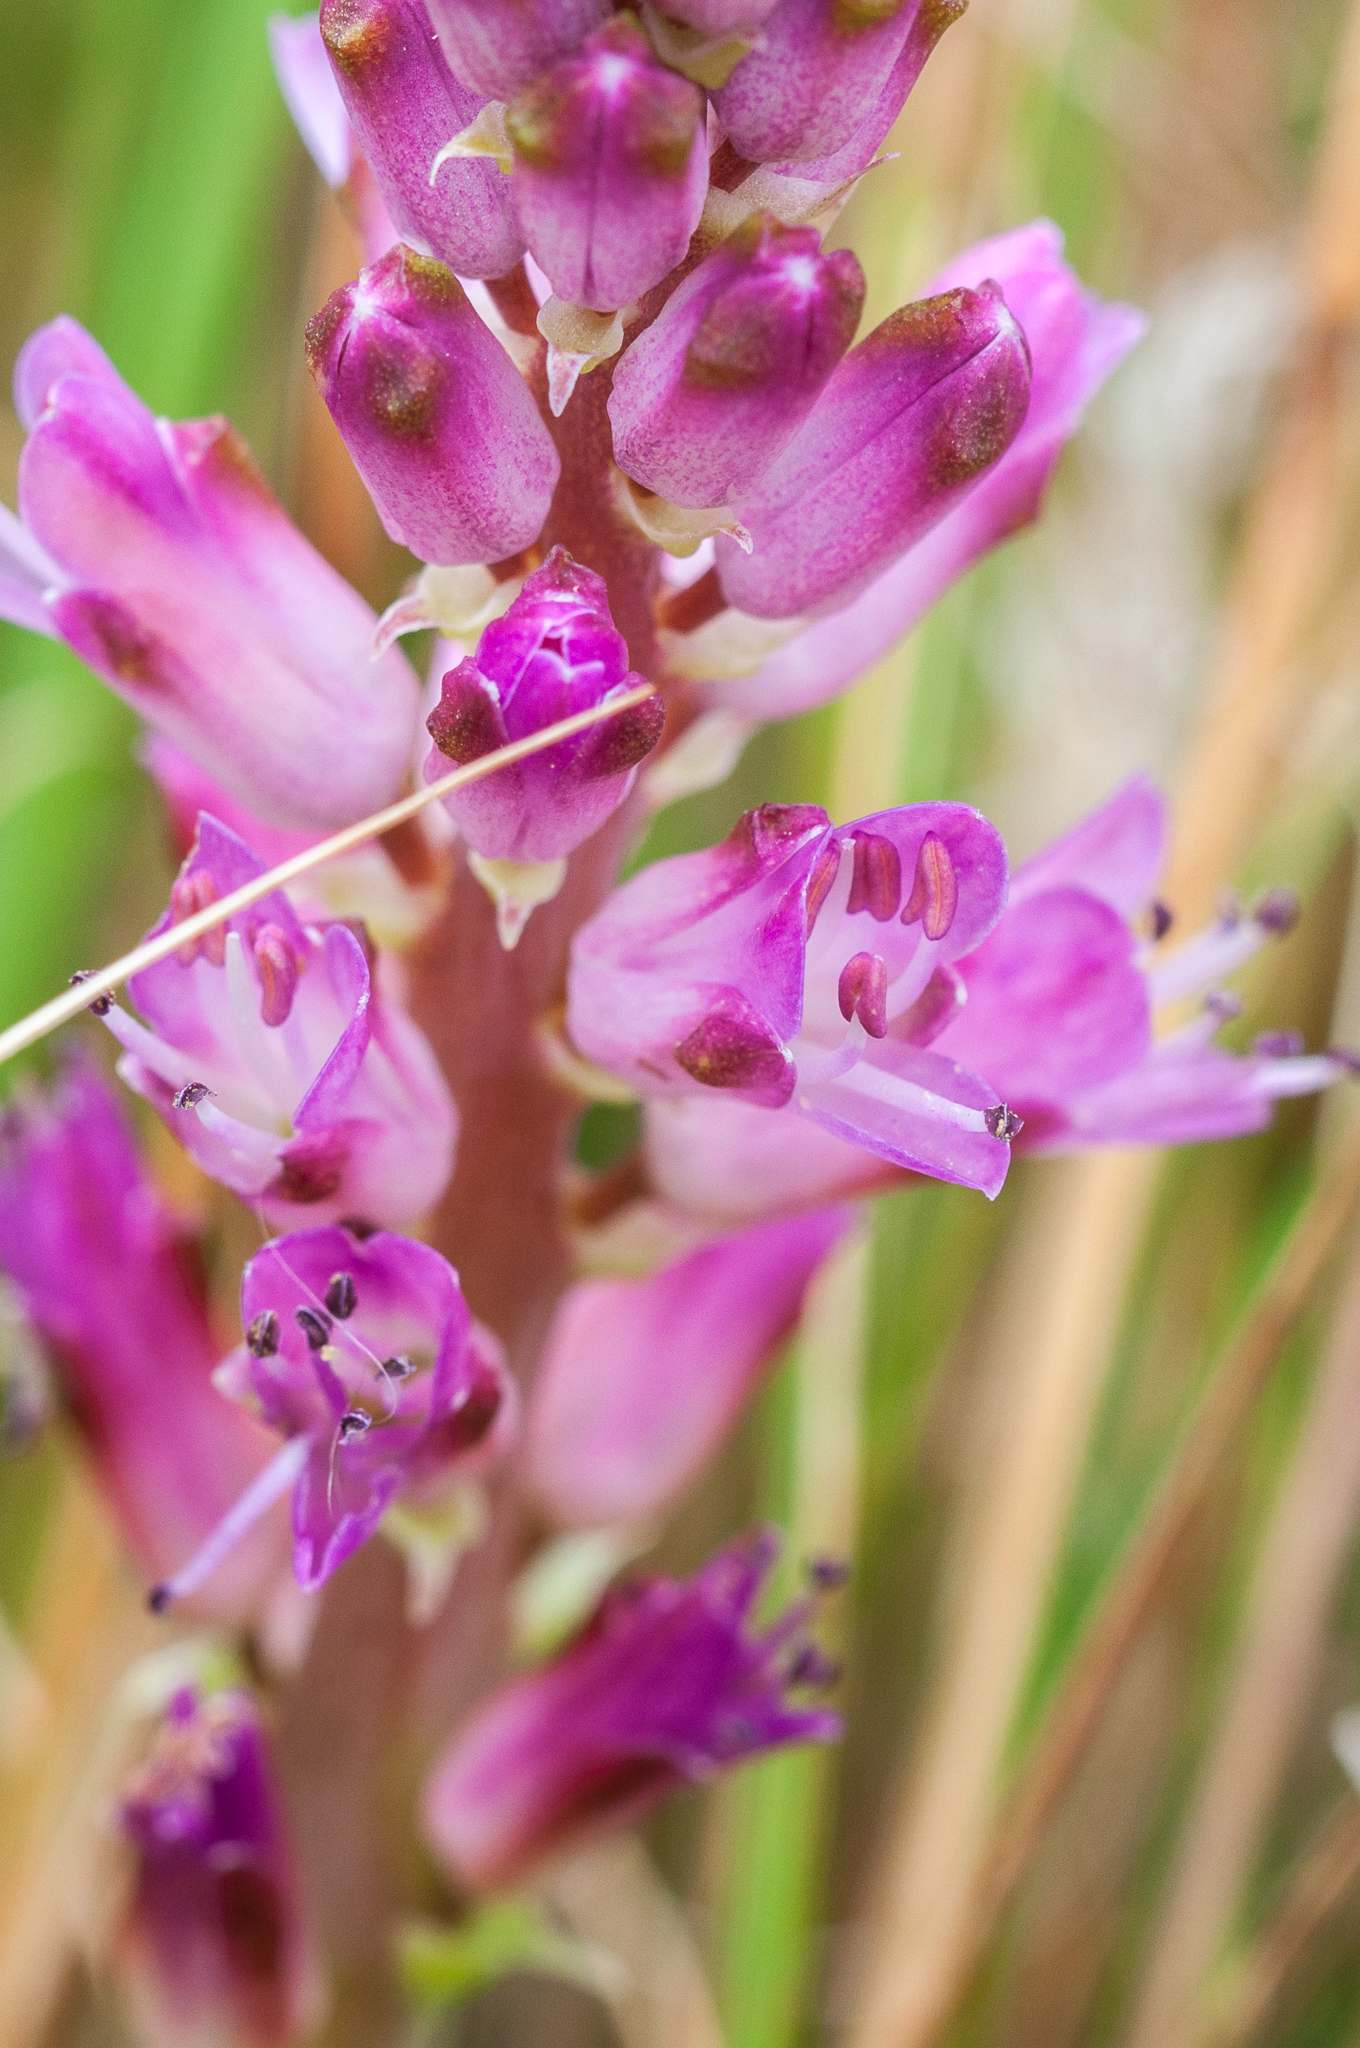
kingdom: Plantae
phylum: Tracheophyta
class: Liliopsida
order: Asparagales
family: Asparagaceae
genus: Lachenalia
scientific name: Lachenalia salteri
